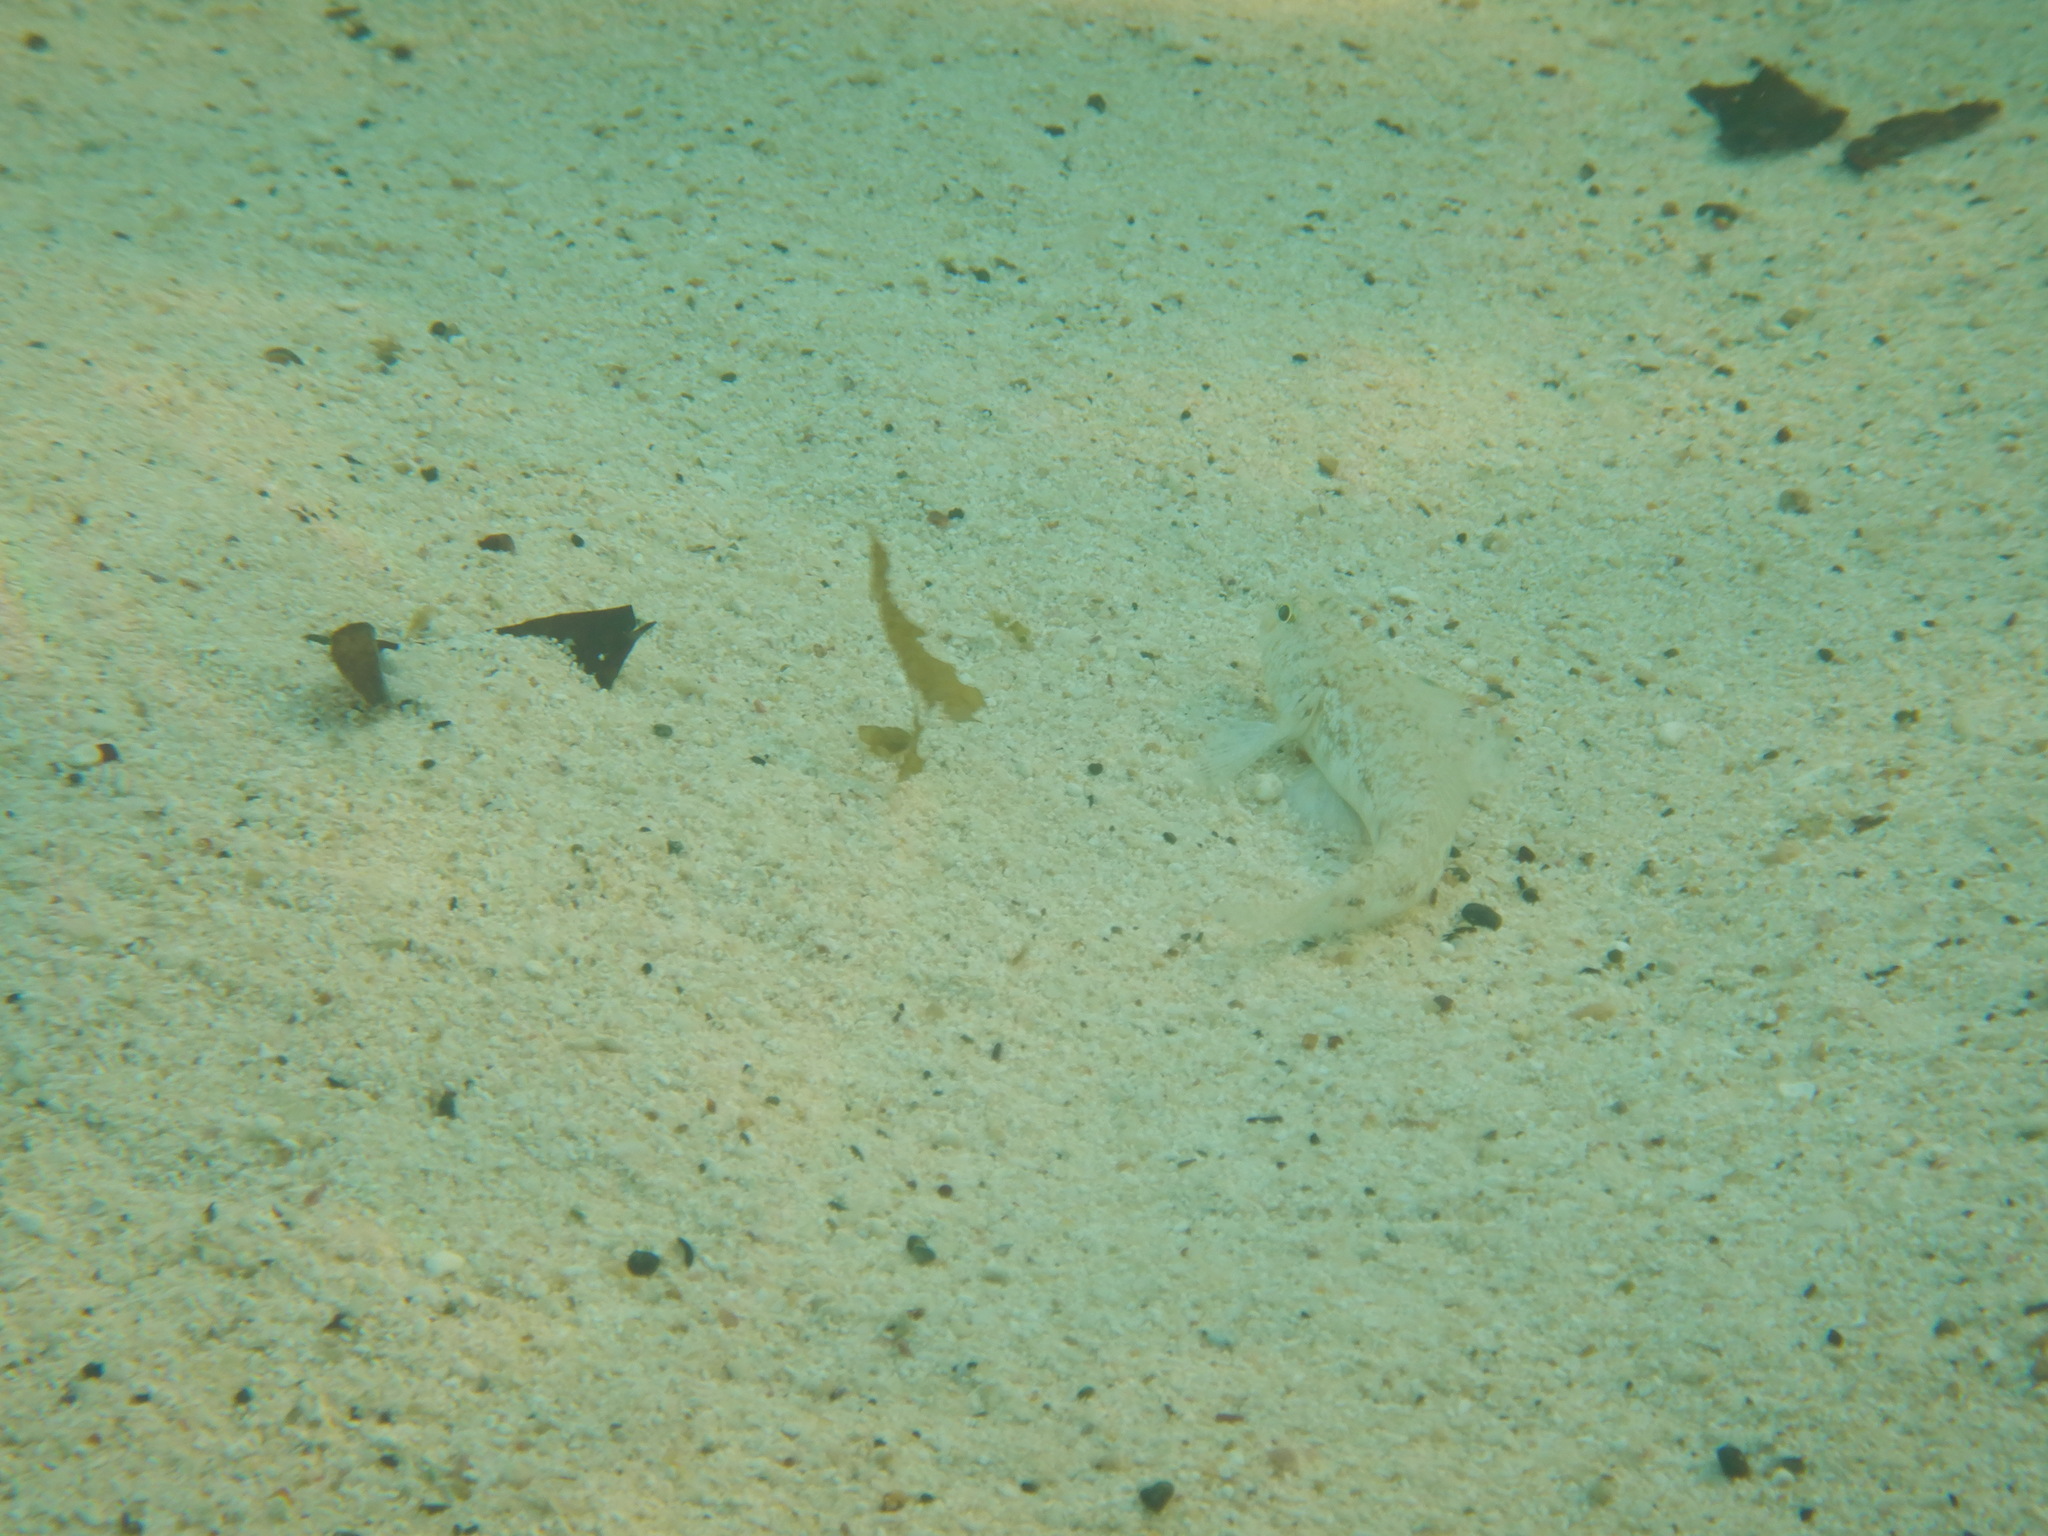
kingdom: Animalia
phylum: Chordata
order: Perciformes
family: Gobiidae
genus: Gobius
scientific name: Gobius niger
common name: Black goby
